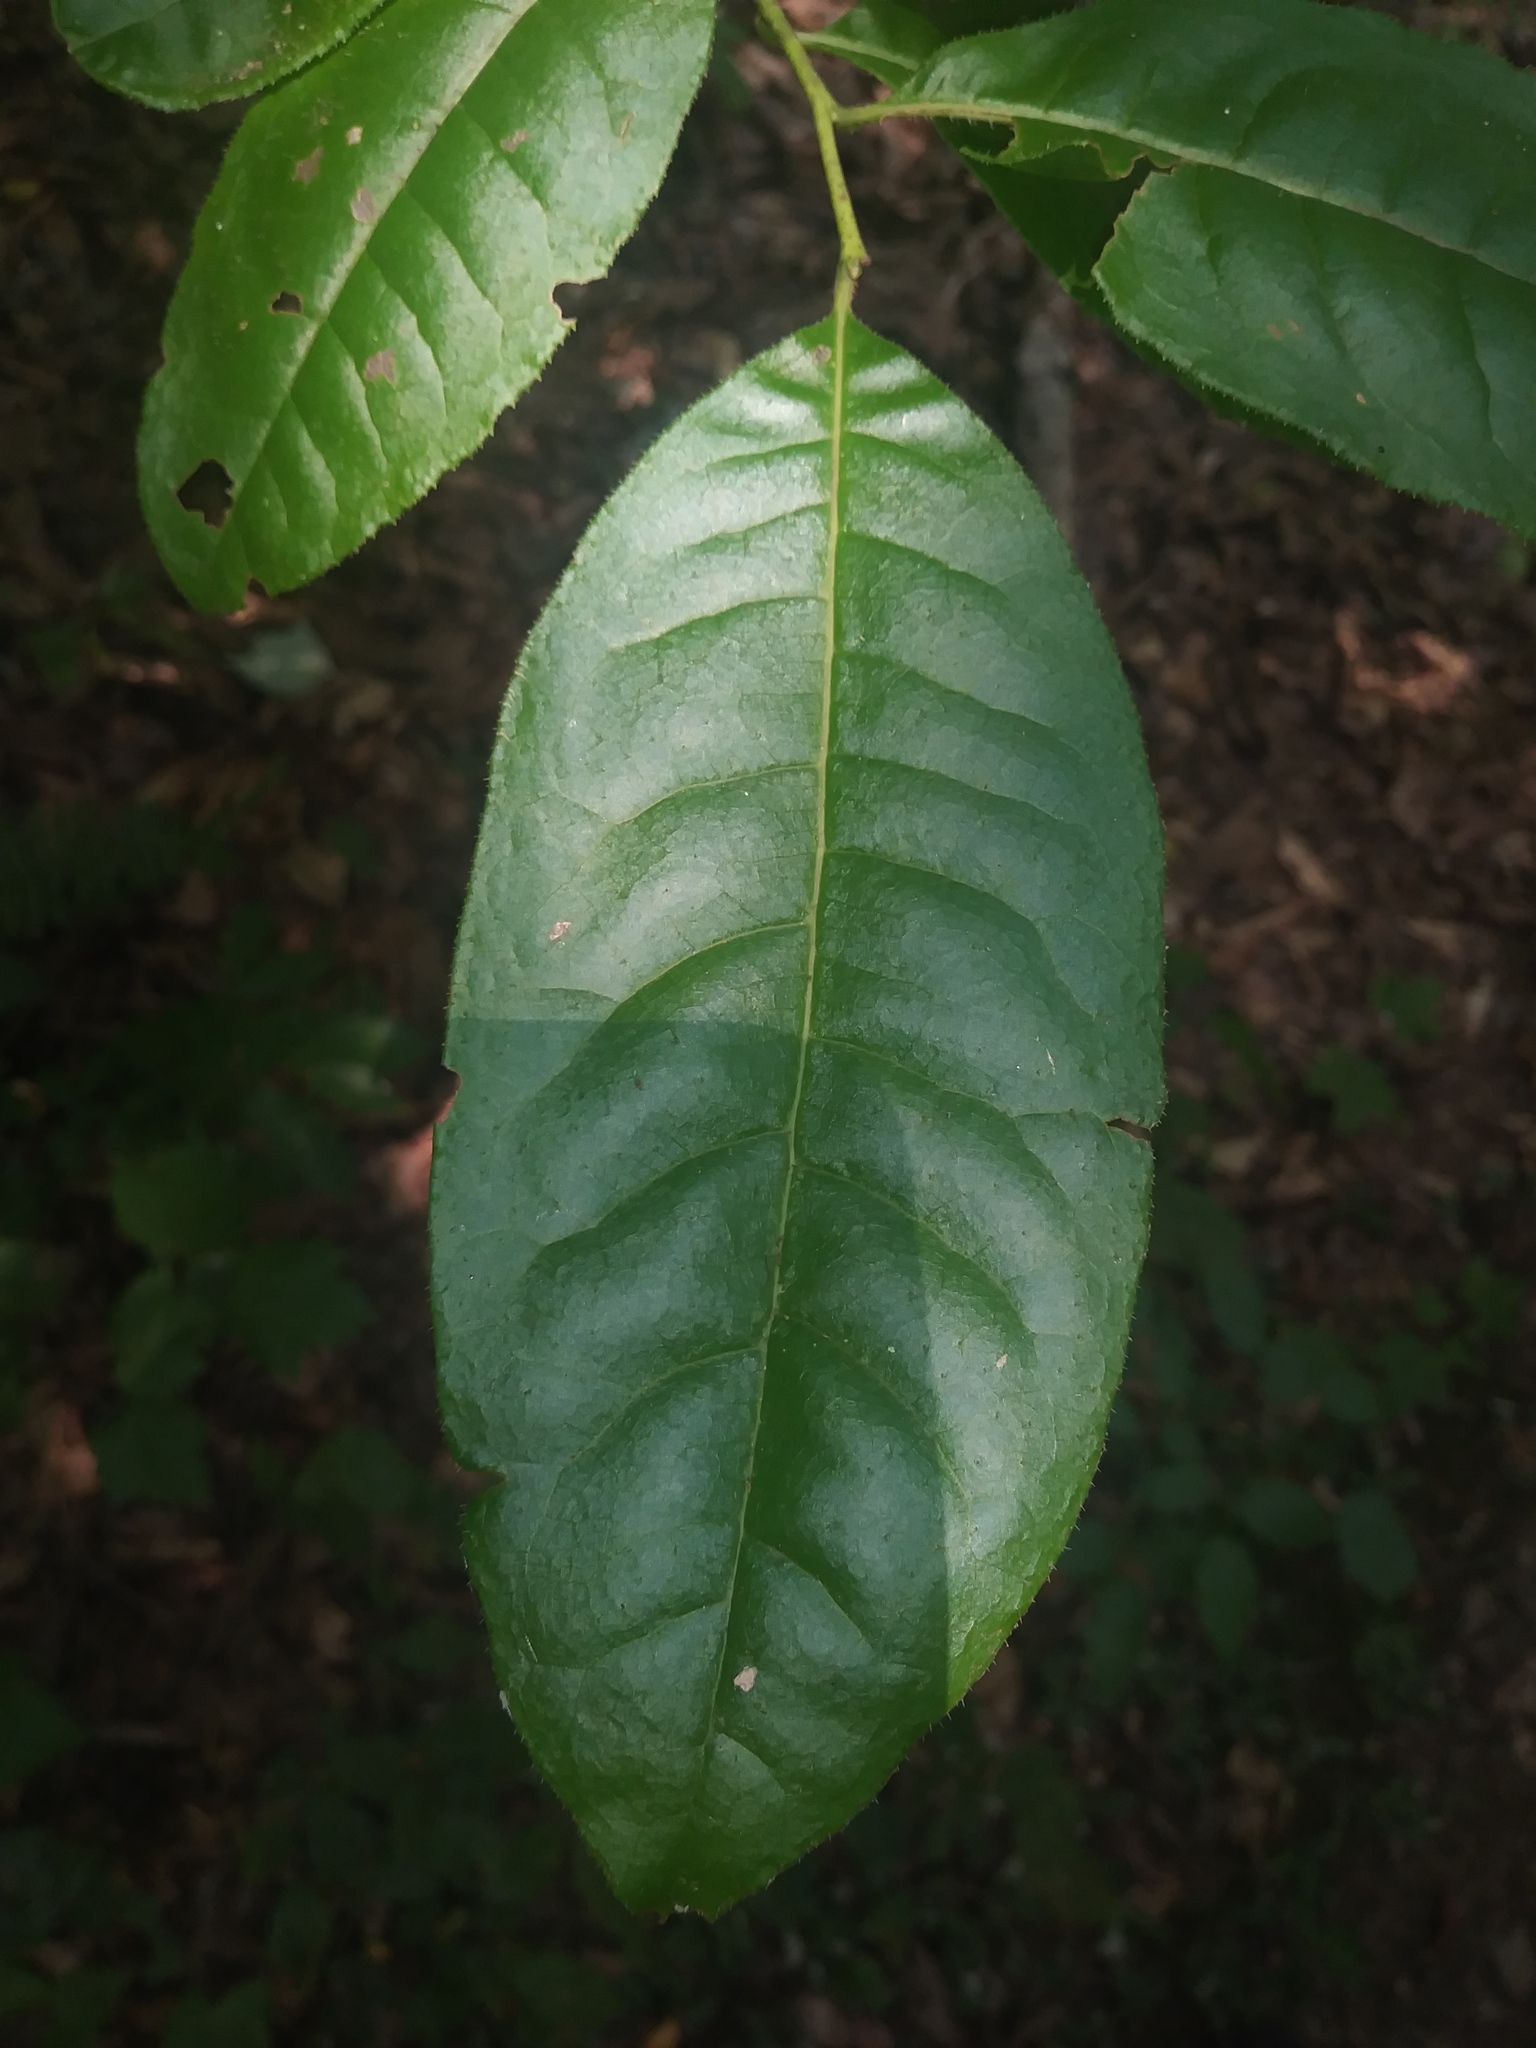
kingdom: Plantae
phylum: Tracheophyta
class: Magnoliopsida
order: Ericales
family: Ericaceae
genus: Oxydendrum
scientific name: Oxydendrum arboreum
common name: Sourwood
